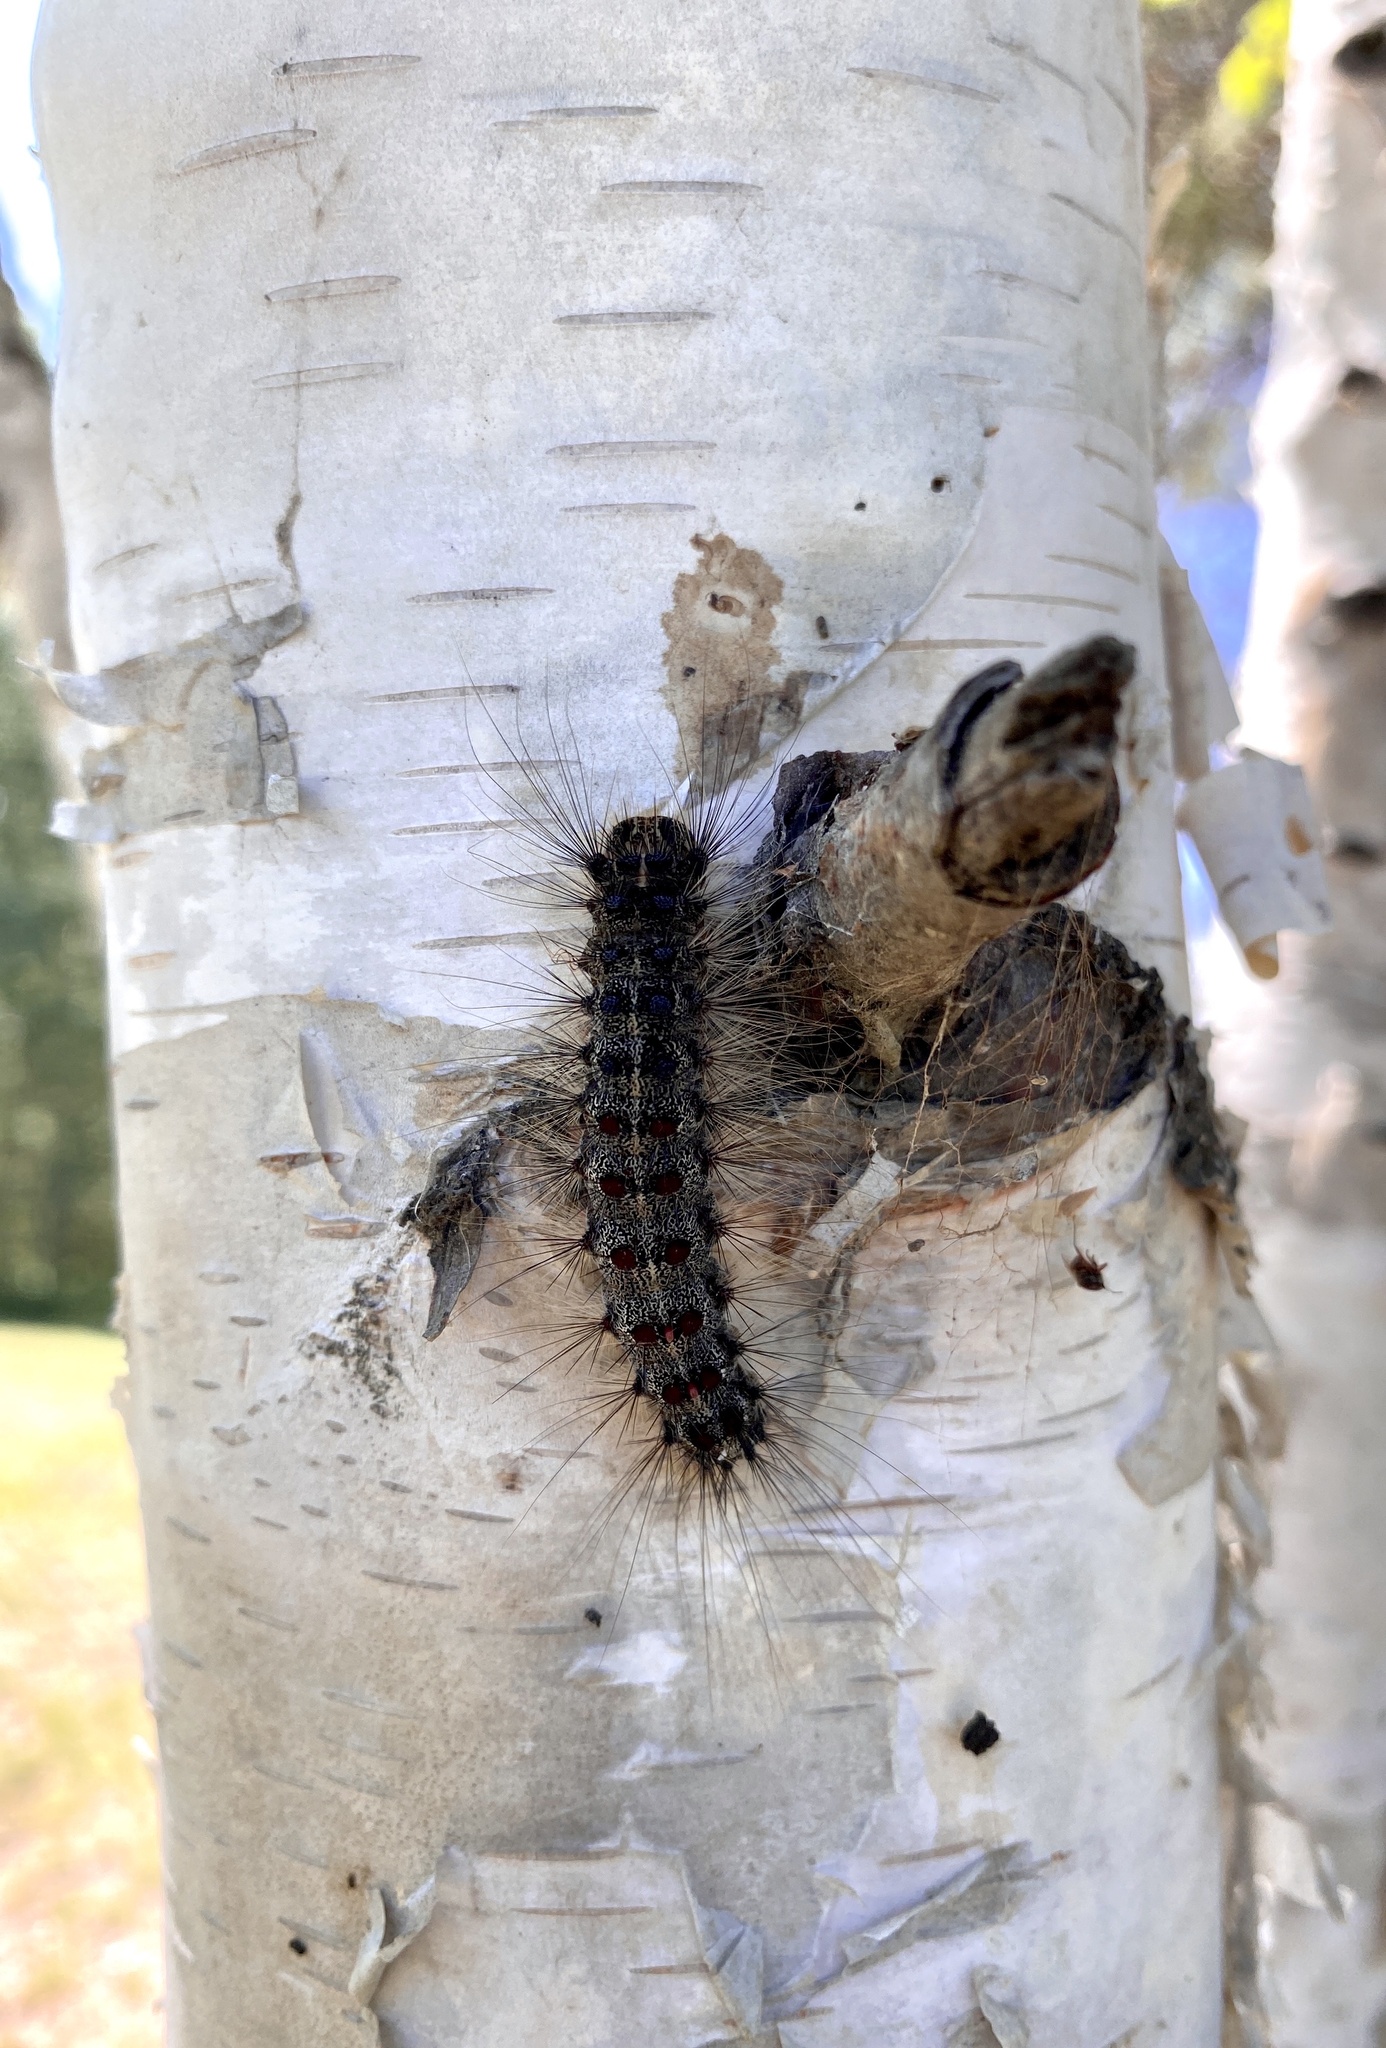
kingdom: Animalia
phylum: Arthropoda
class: Insecta
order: Lepidoptera
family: Erebidae
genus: Lymantria
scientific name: Lymantria dispar
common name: Gypsy moth
